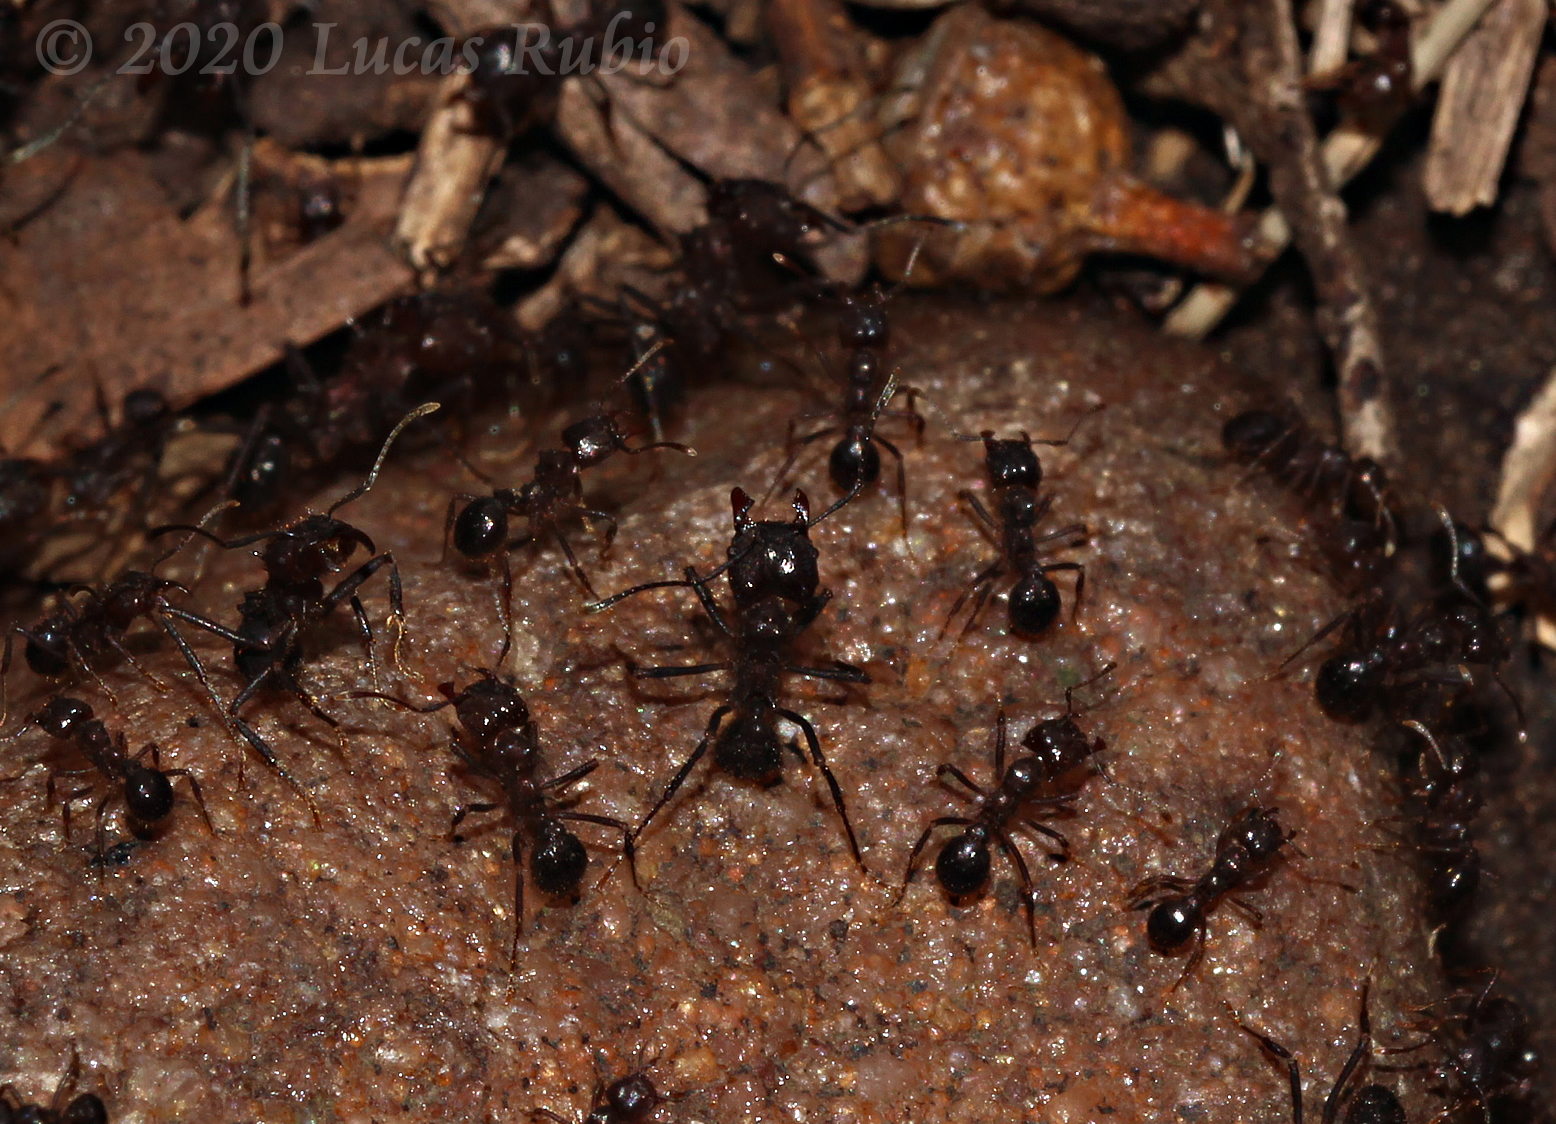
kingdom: Animalia
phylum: Arthropoda
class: Insecta
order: Hymenoptera
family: Formicidae
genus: Acromyrmex
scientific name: Acromyrmex ambiguus
